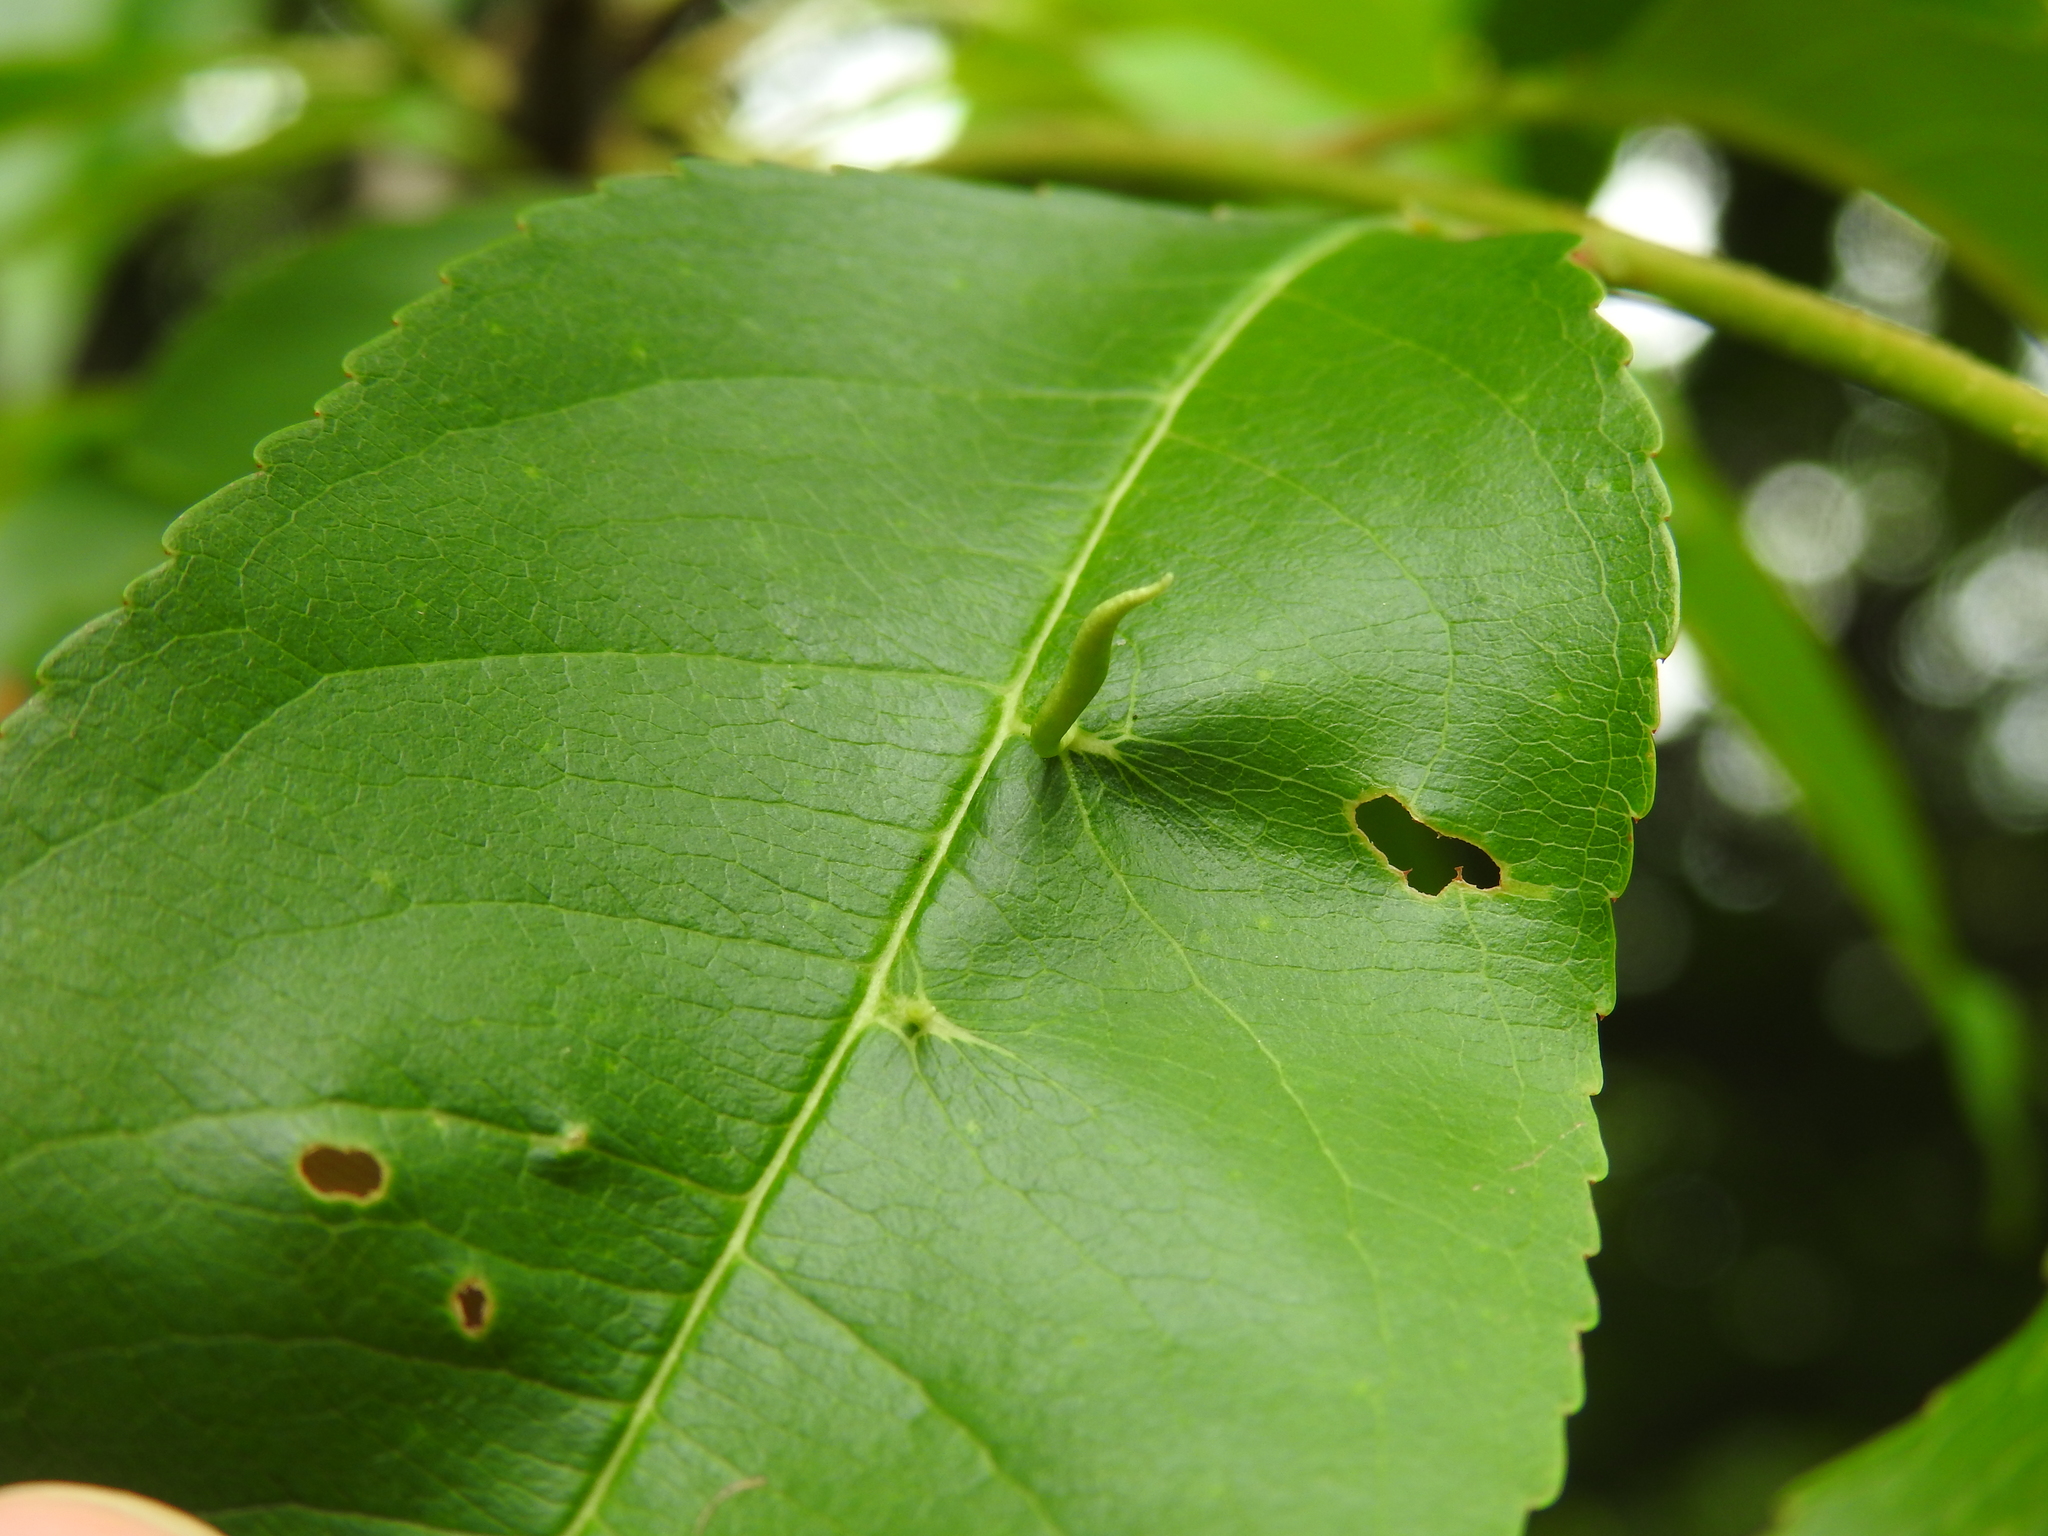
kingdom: Animalia
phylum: Arthropoda
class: Arachnida
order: Trombidiformes
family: Eriophyidae
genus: Eriophyes
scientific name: Eriophyes
